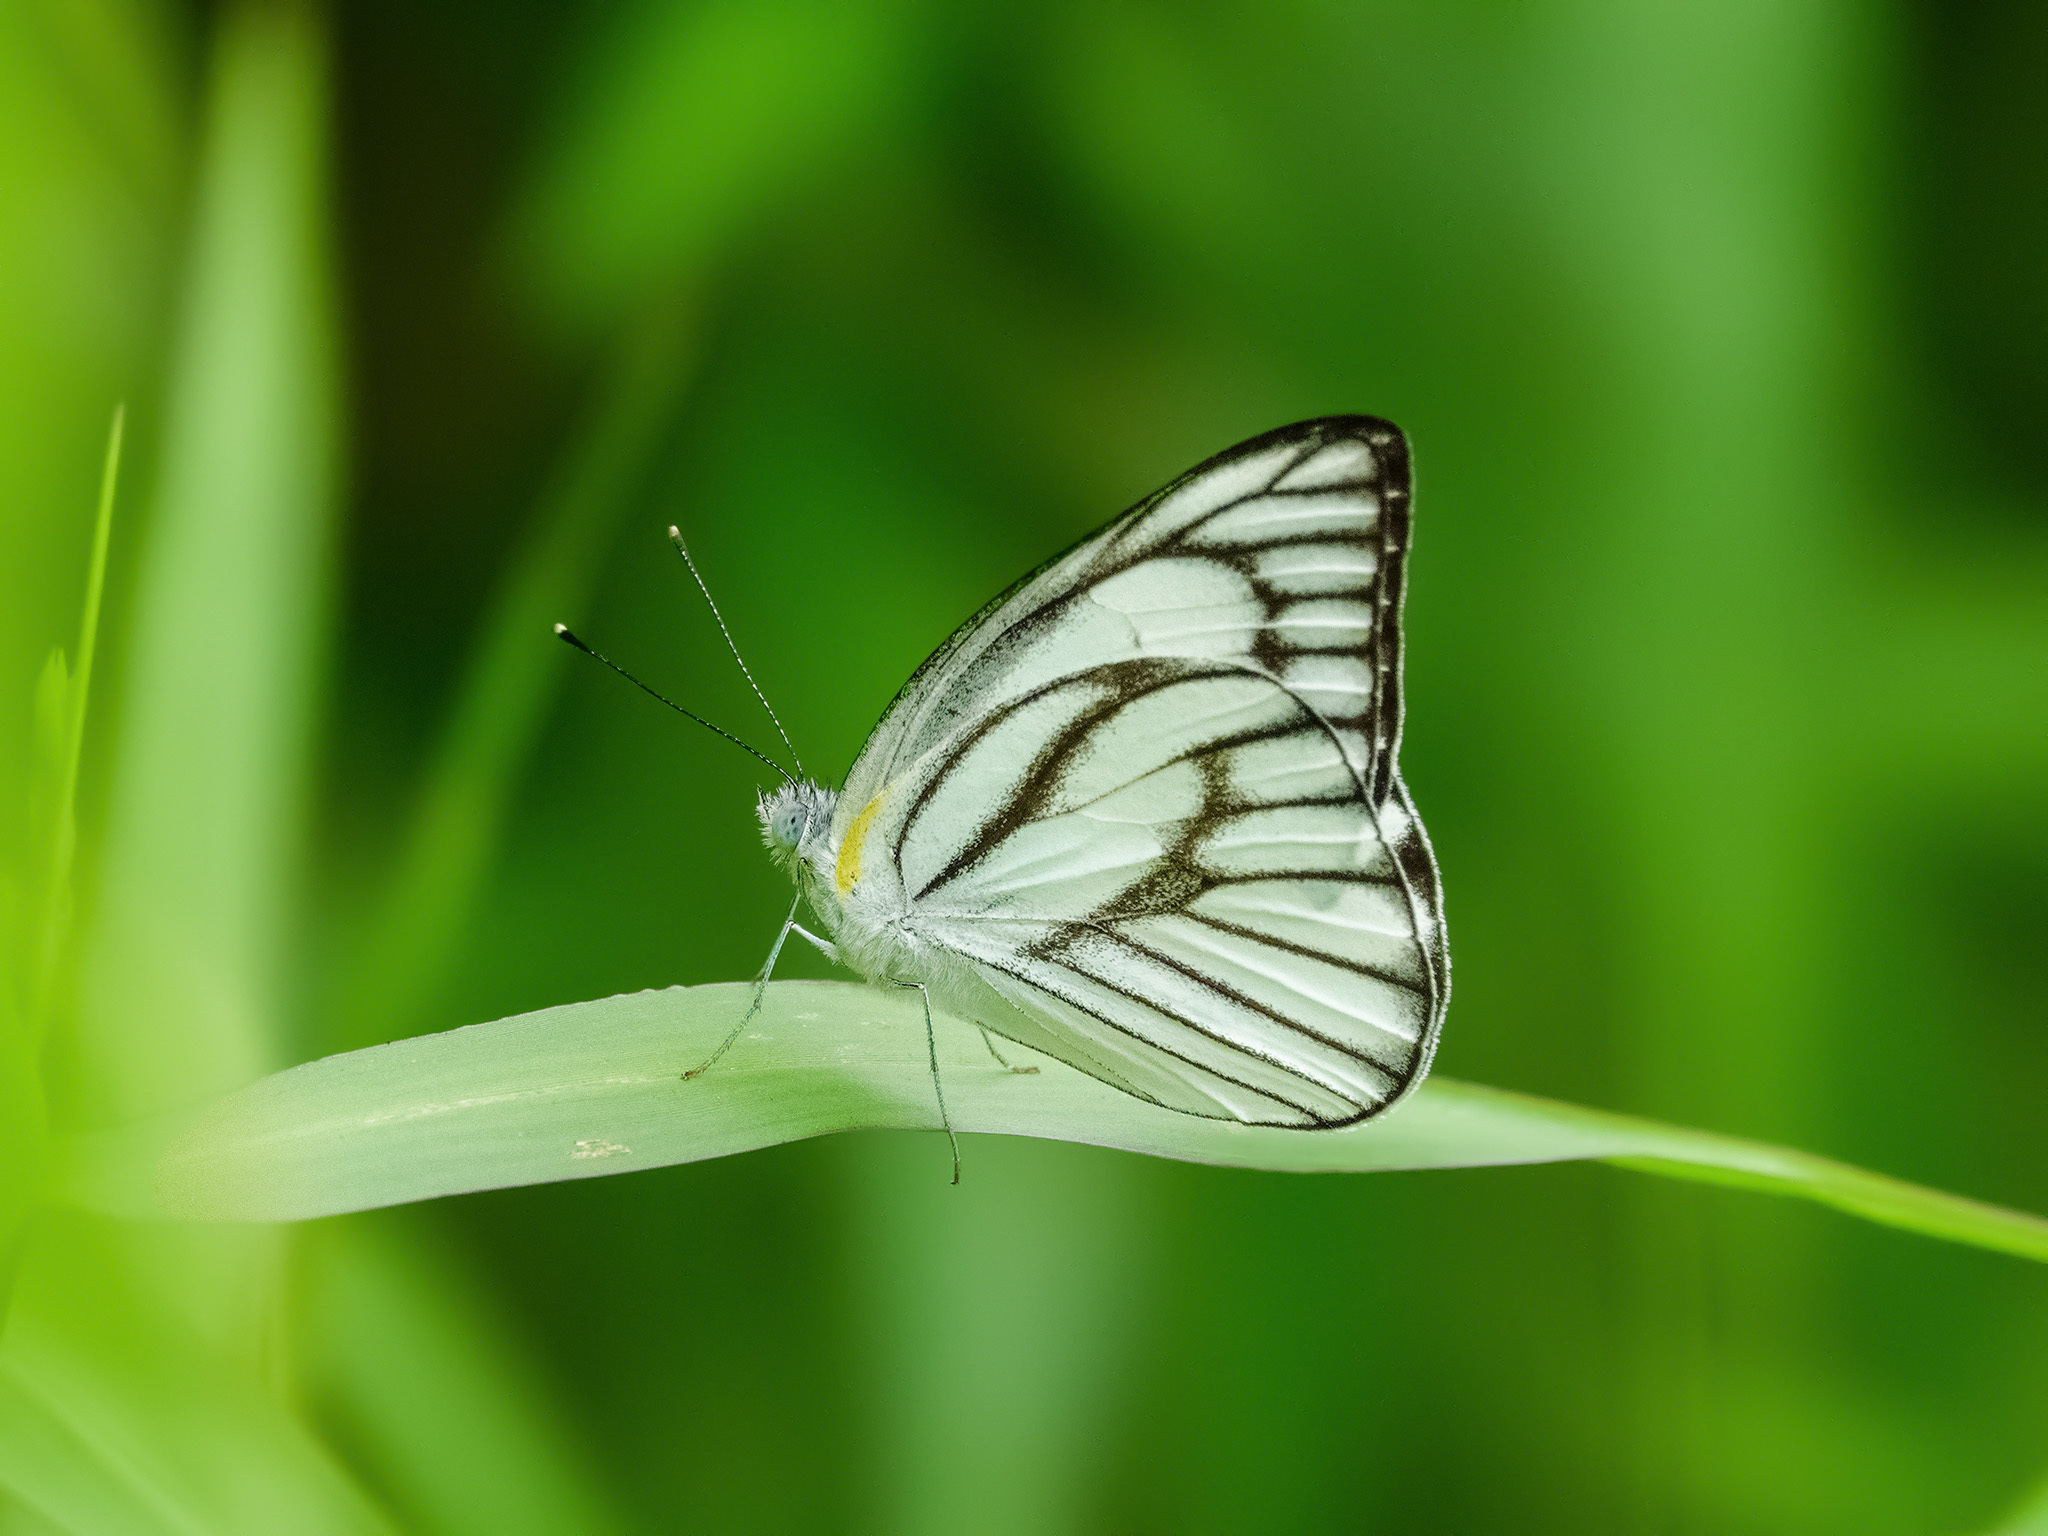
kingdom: Animalia
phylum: Arthropoda
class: Insecta
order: Lepidoptera
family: Pieridae
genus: Appias
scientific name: Appias libythea
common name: Striped albatross
